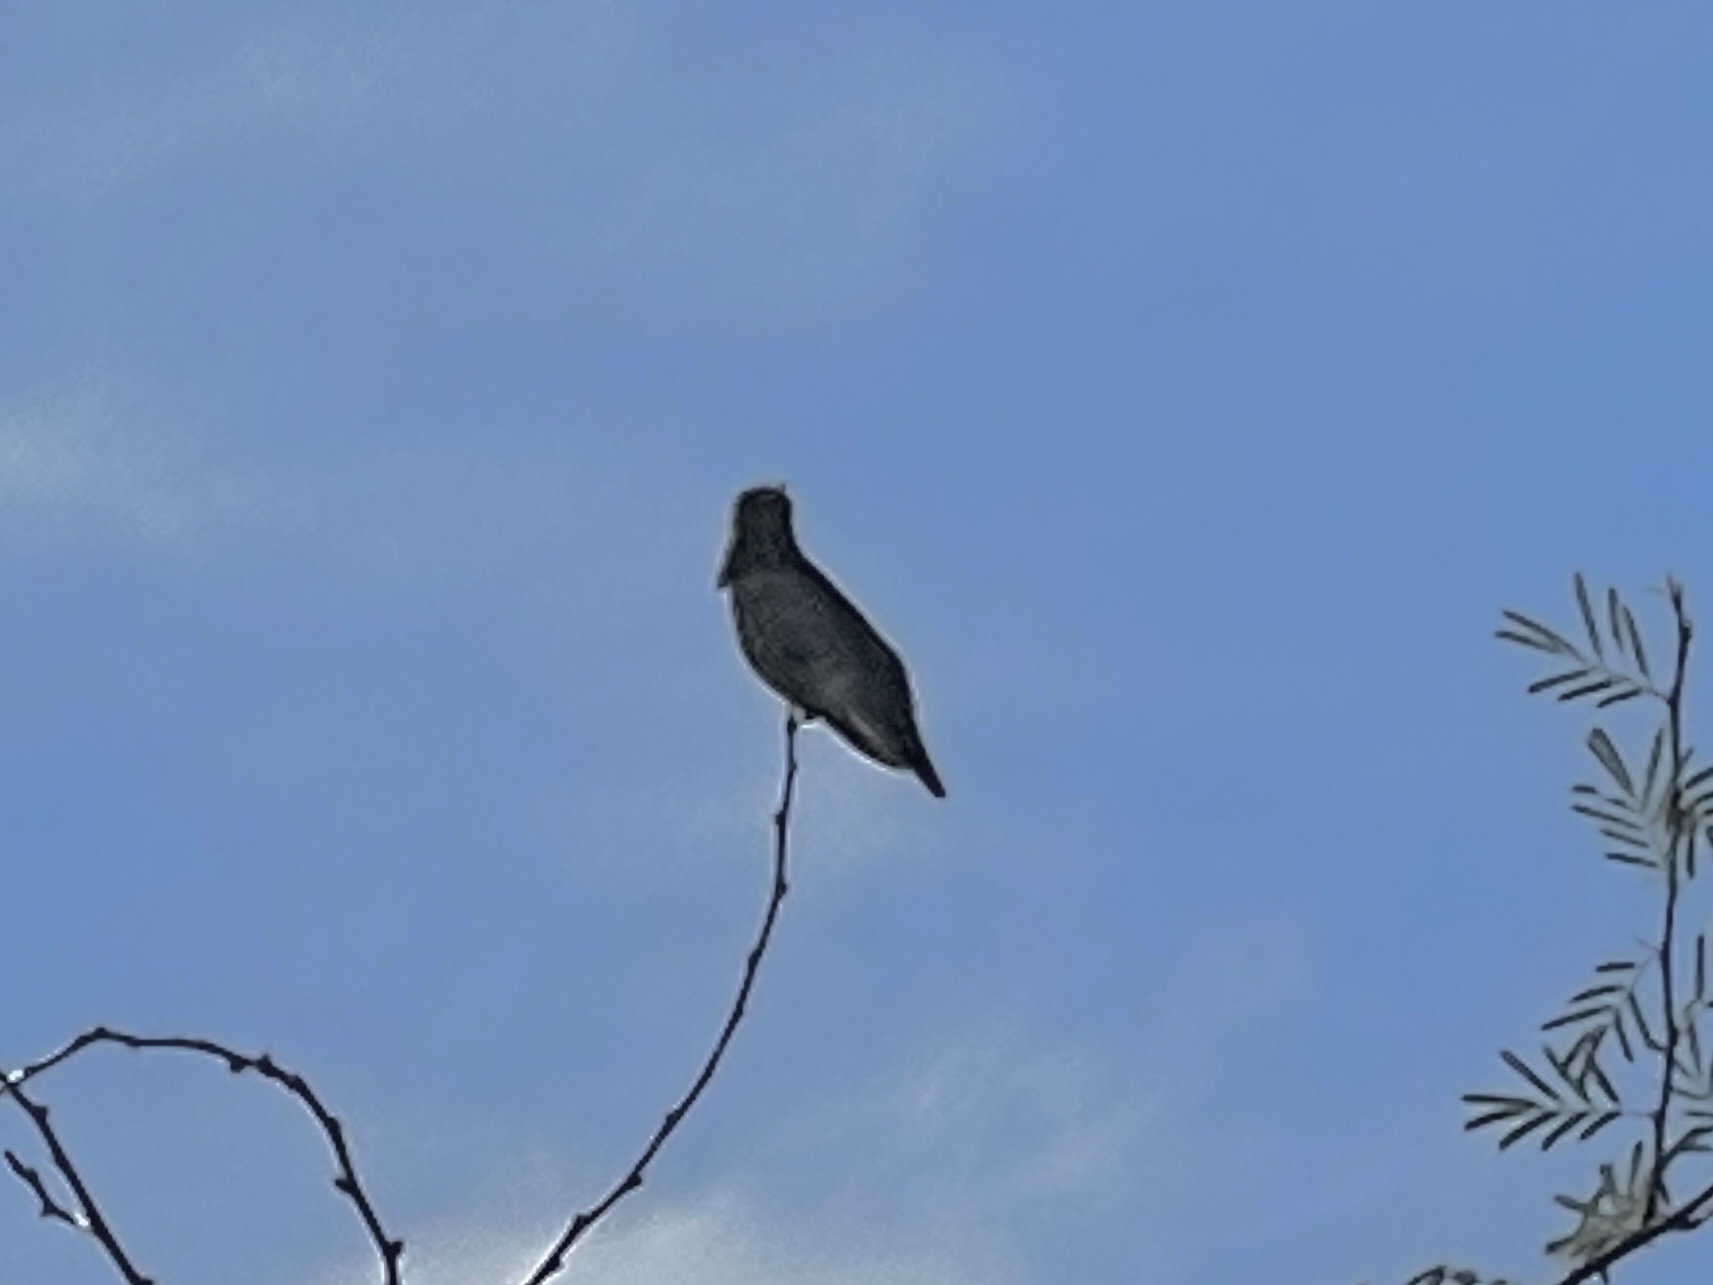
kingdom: Animalia
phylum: Chordata
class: Aves
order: Apodiformes
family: Trochilidae
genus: Calypte
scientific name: Calypte anna
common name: Anna's hummingbird
